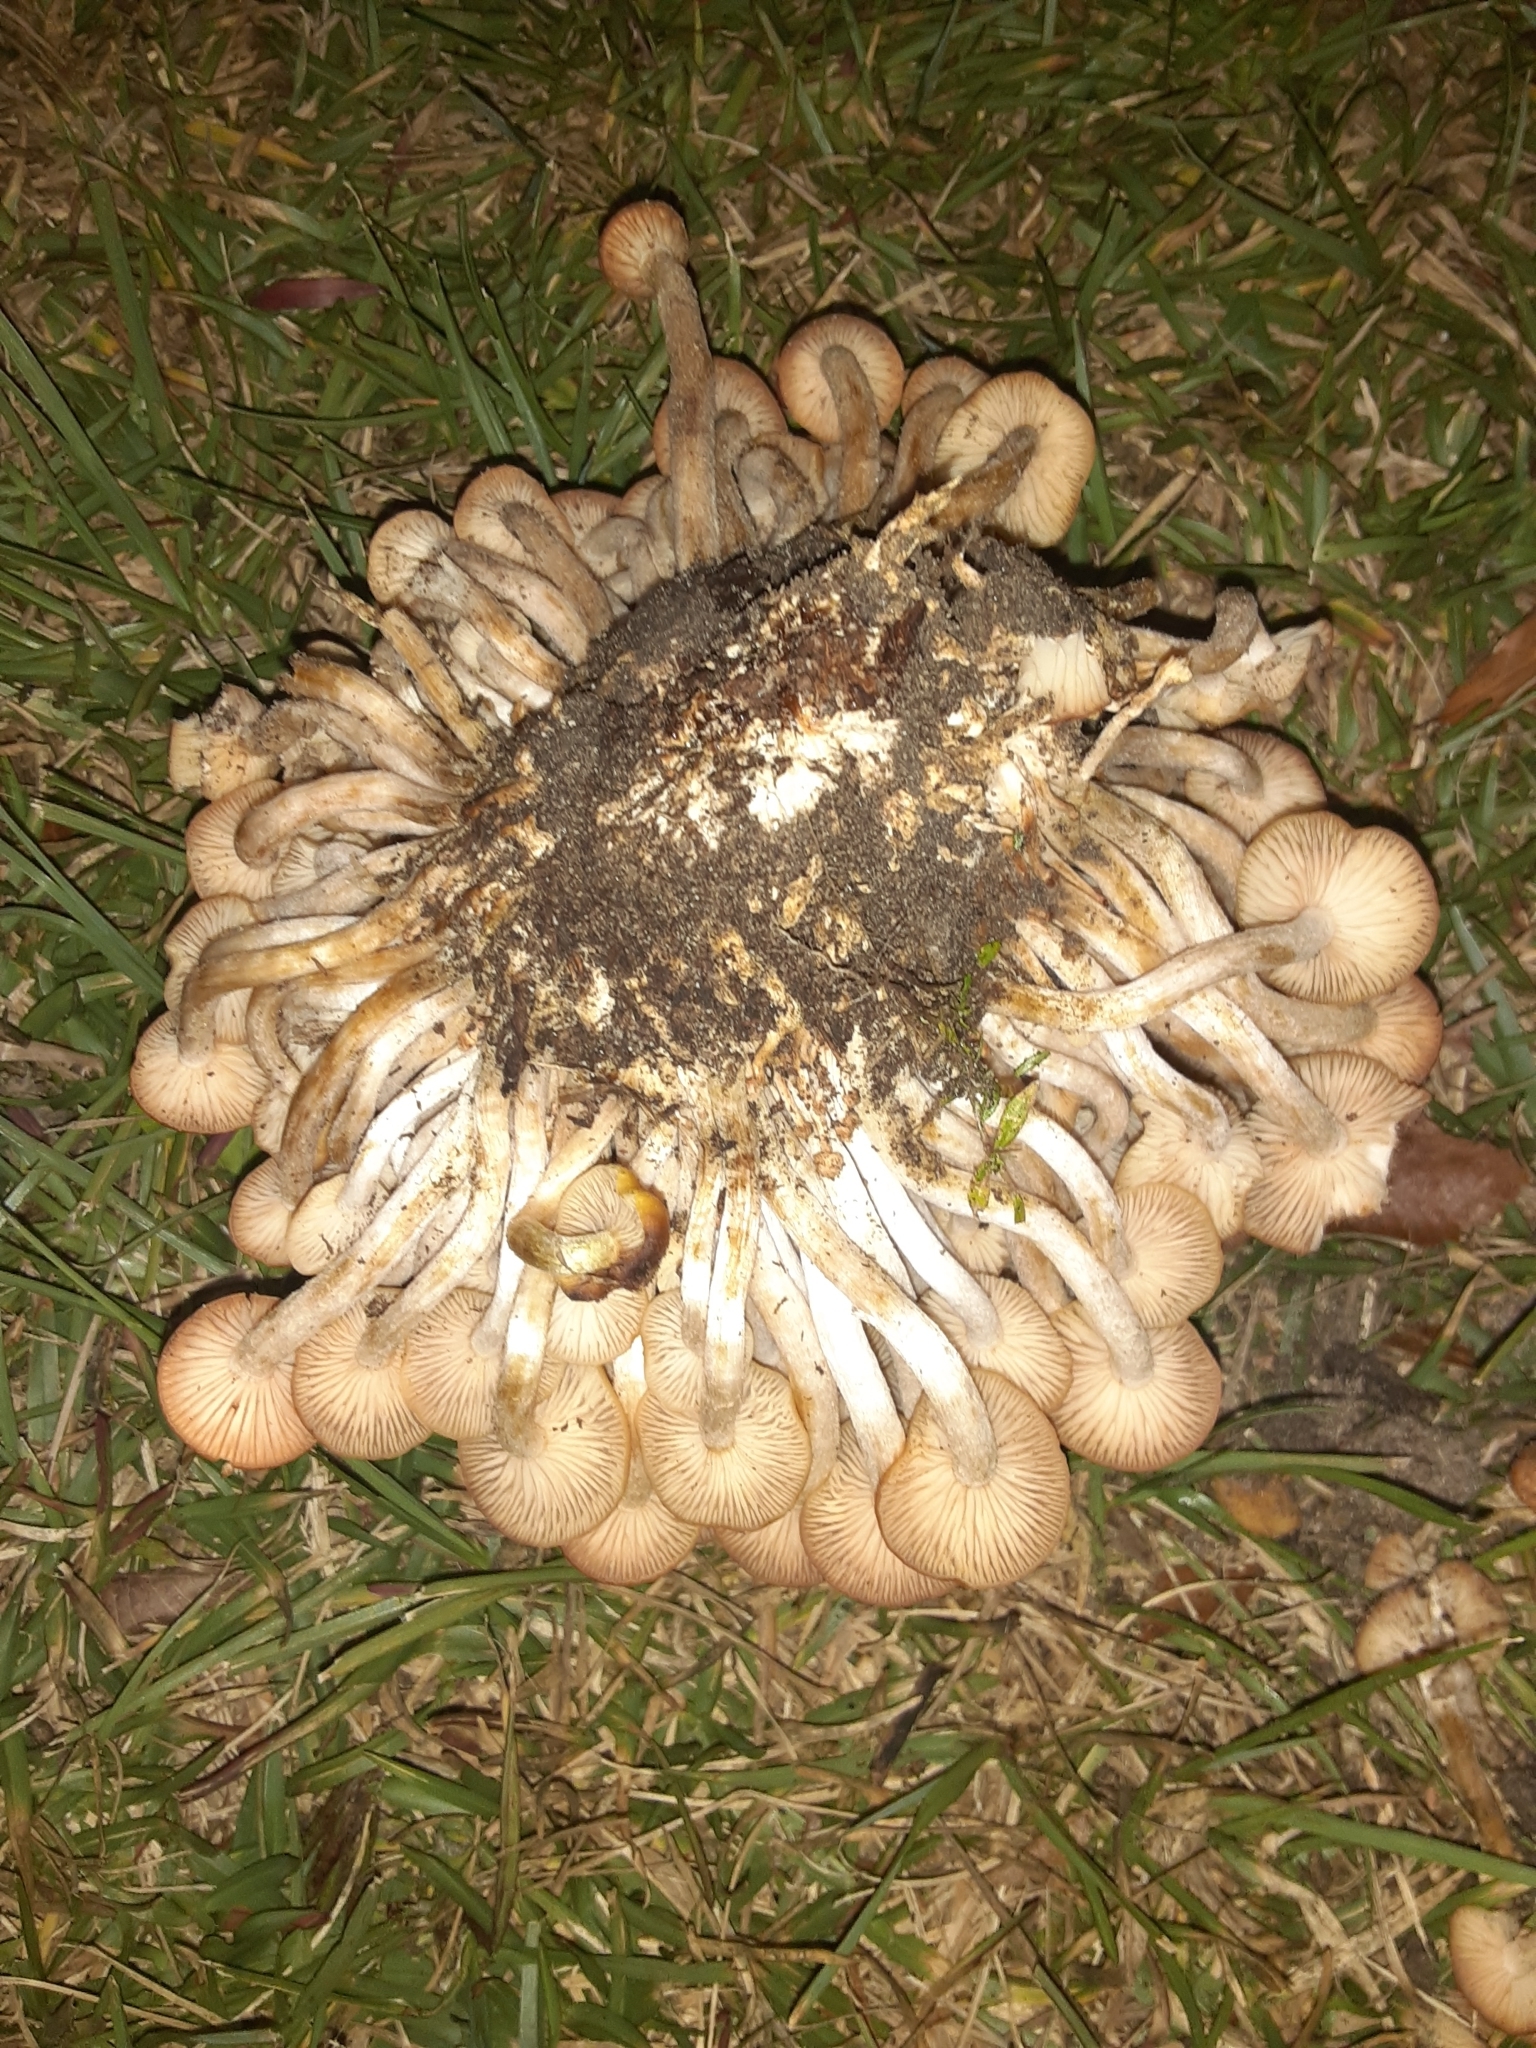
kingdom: Fungi
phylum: Basidiomycota
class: Agaricomycetes
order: Agaricales
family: Physalacriaceae
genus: Desarmillaria
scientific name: Desarmillaria caespitosa
